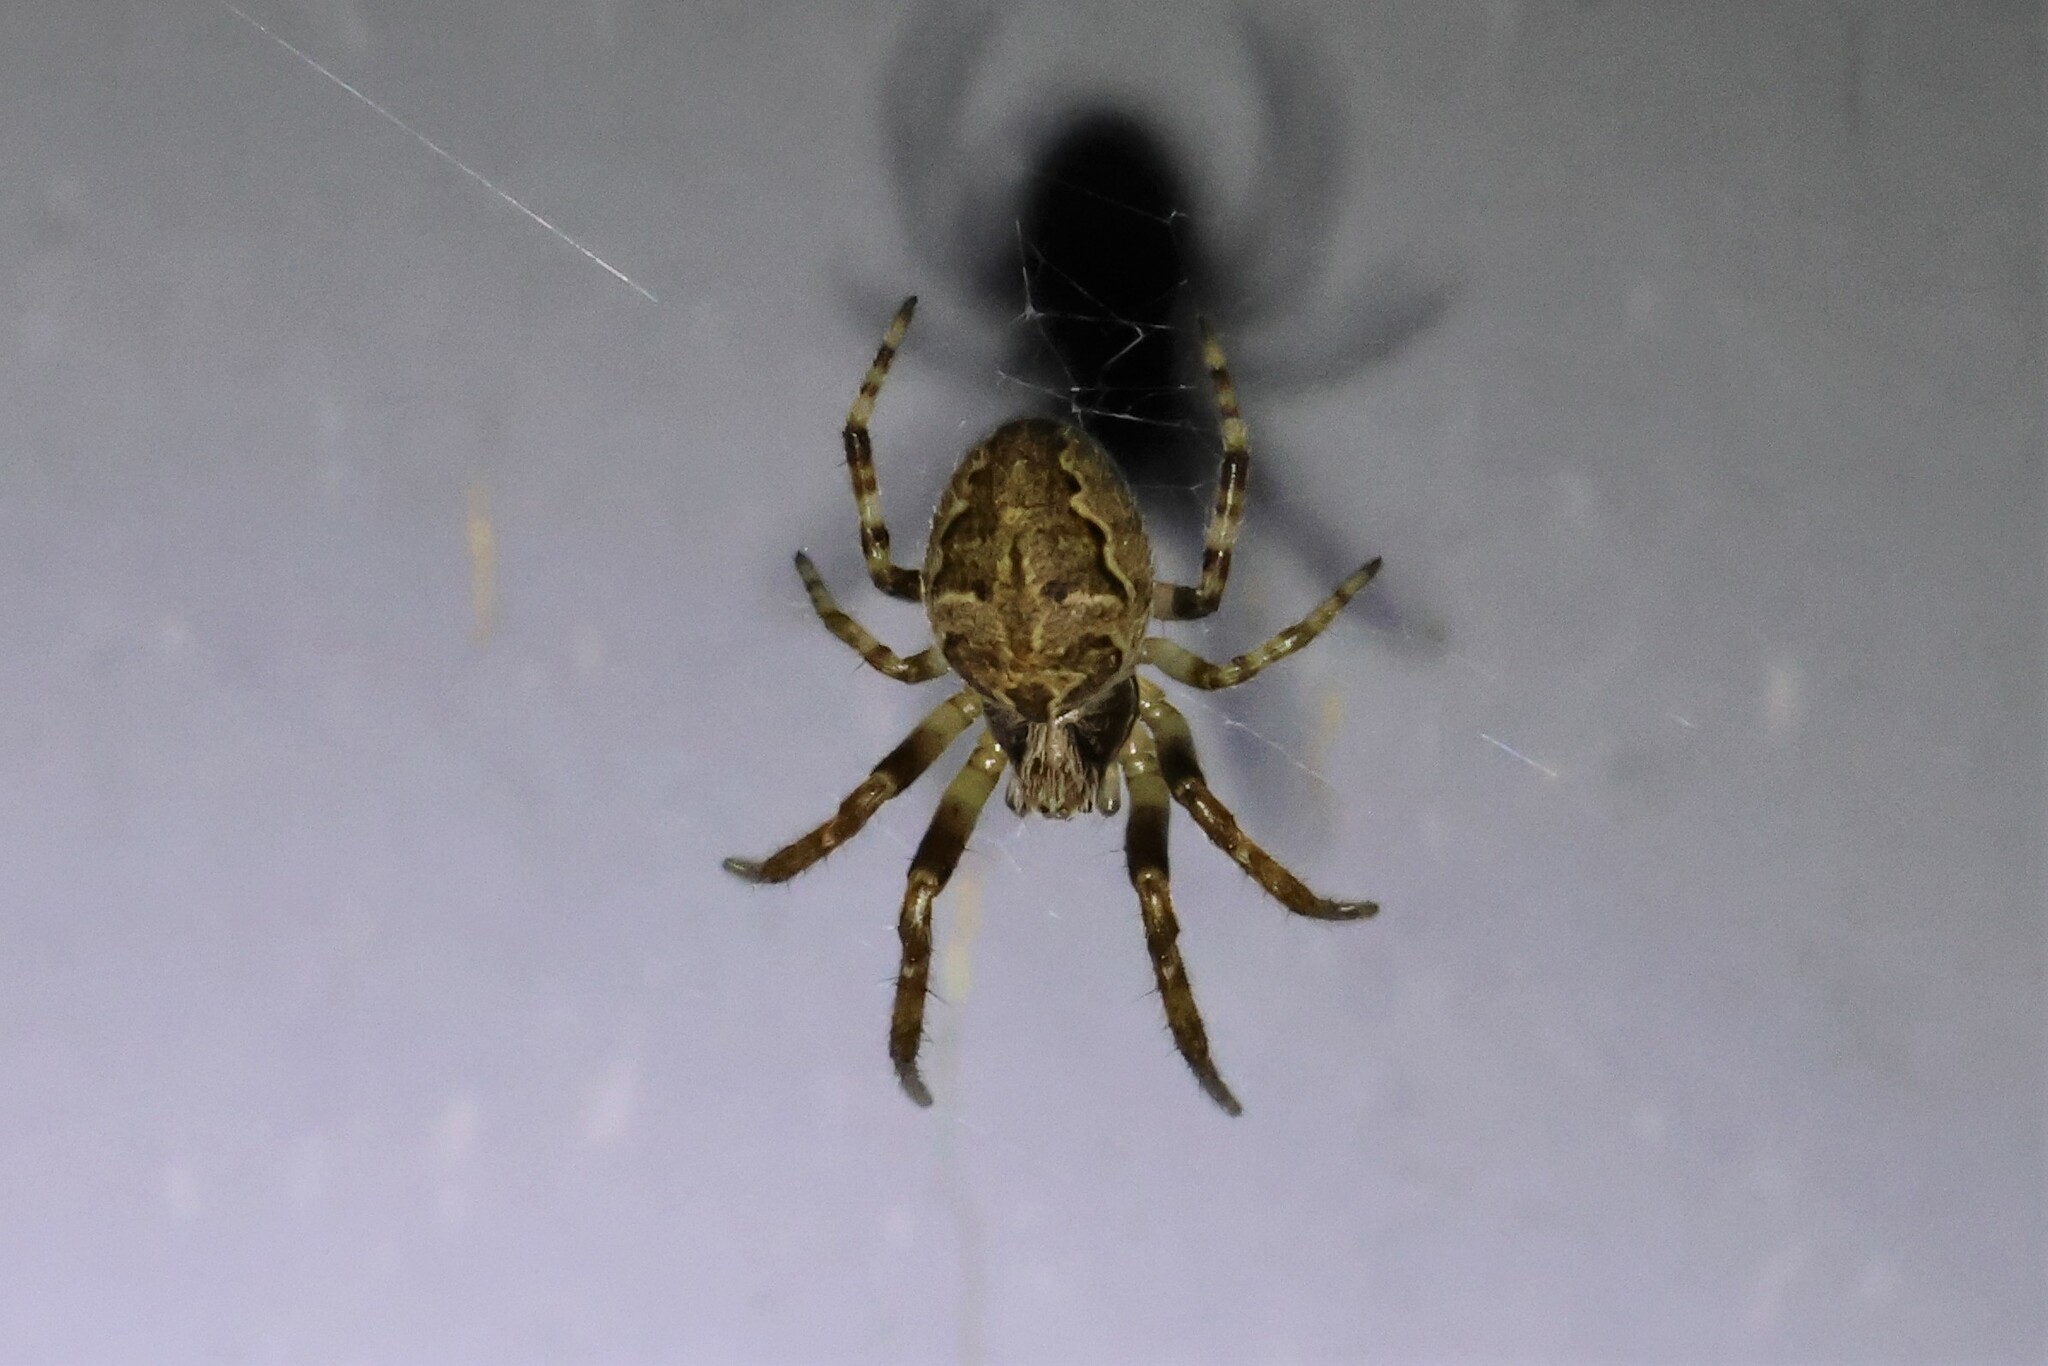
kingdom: Animalia
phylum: Arthropoda
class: Arachnida
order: Araneae
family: Araneidae
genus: Larinioides
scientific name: Larinioides sclopetarius
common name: Bridge orbweaver
